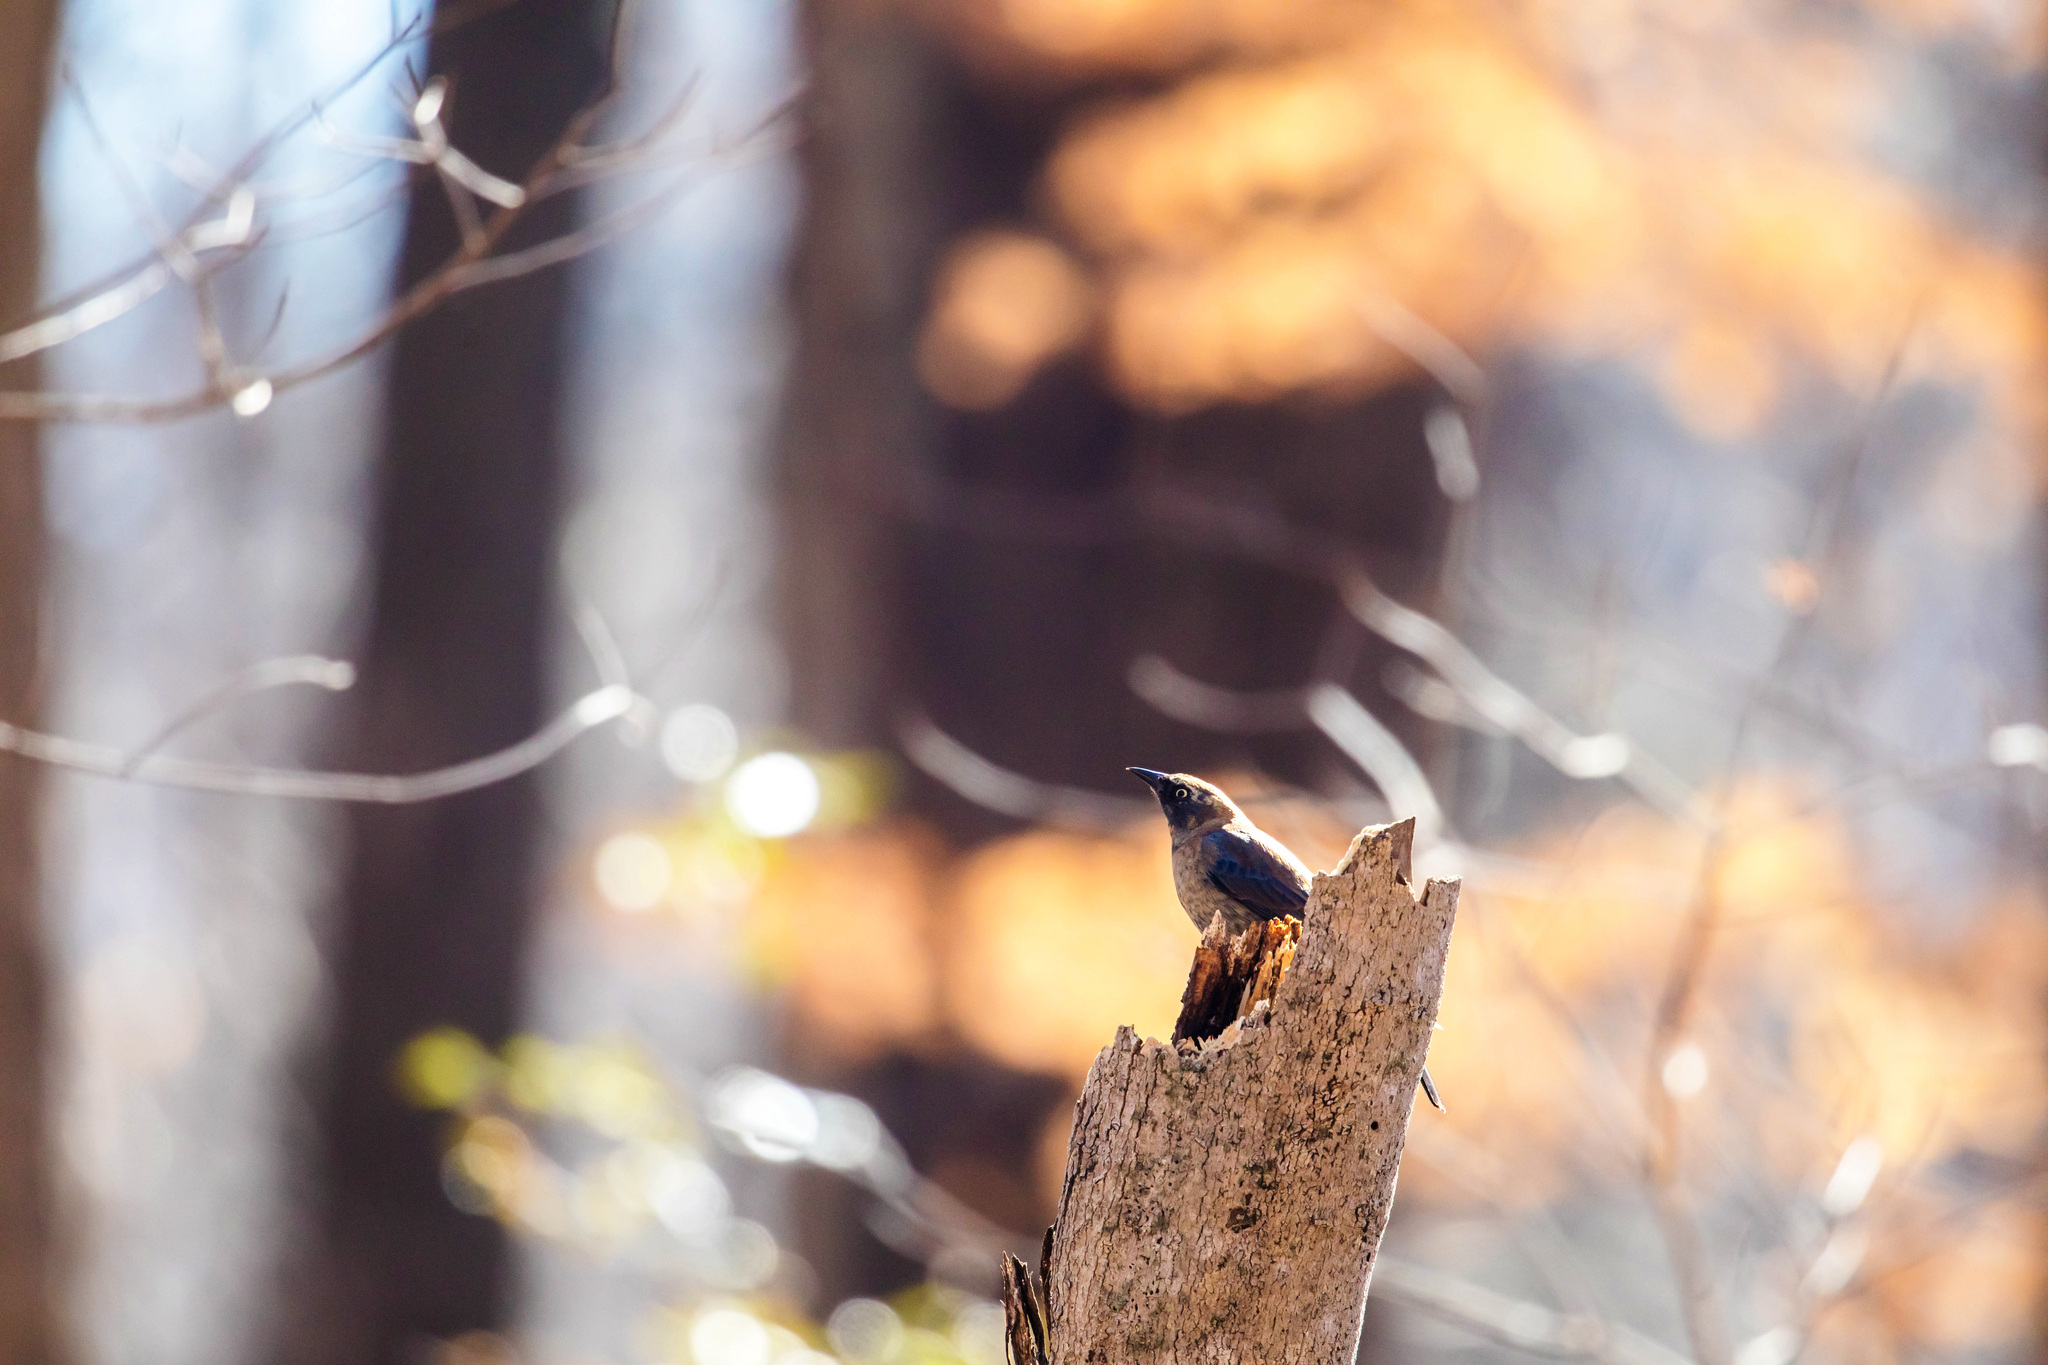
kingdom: Animalia
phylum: Chordata
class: Aves
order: Passeriformes
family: Icteridae
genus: Euphagus
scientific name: Euphagus carolinus
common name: Rusty blackbird
